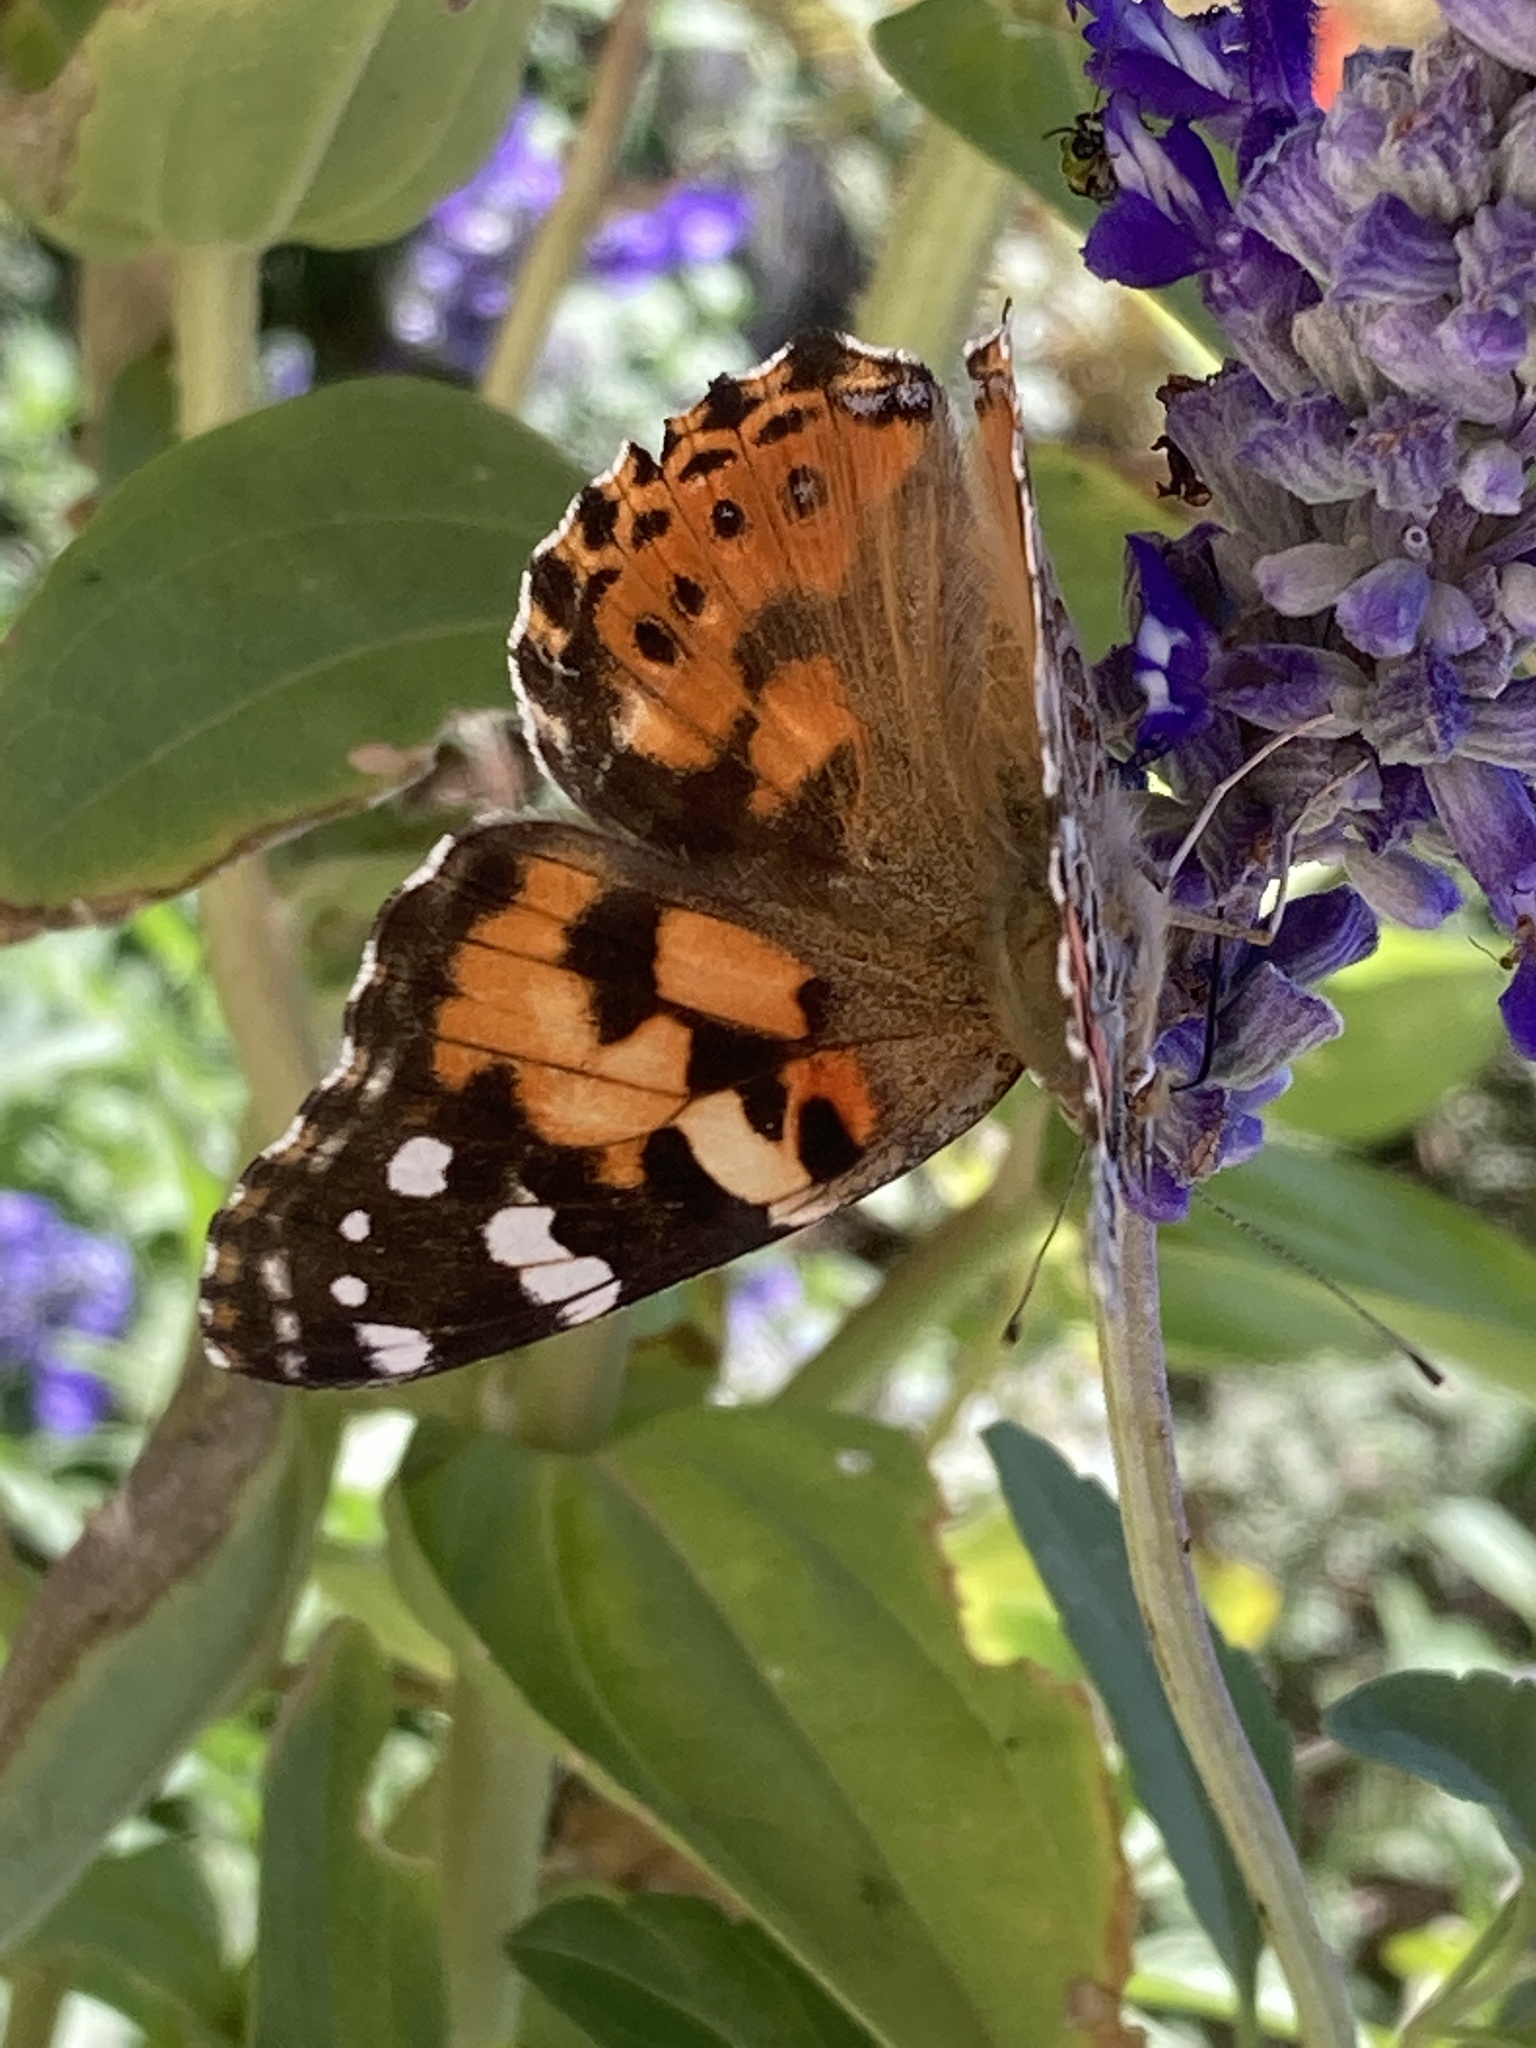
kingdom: Animalia
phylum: Arthropoda
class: Insecta
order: Lepidoptera
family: Nymphalidae
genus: Vanessa
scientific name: Vanessa cardui
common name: Painted lady
